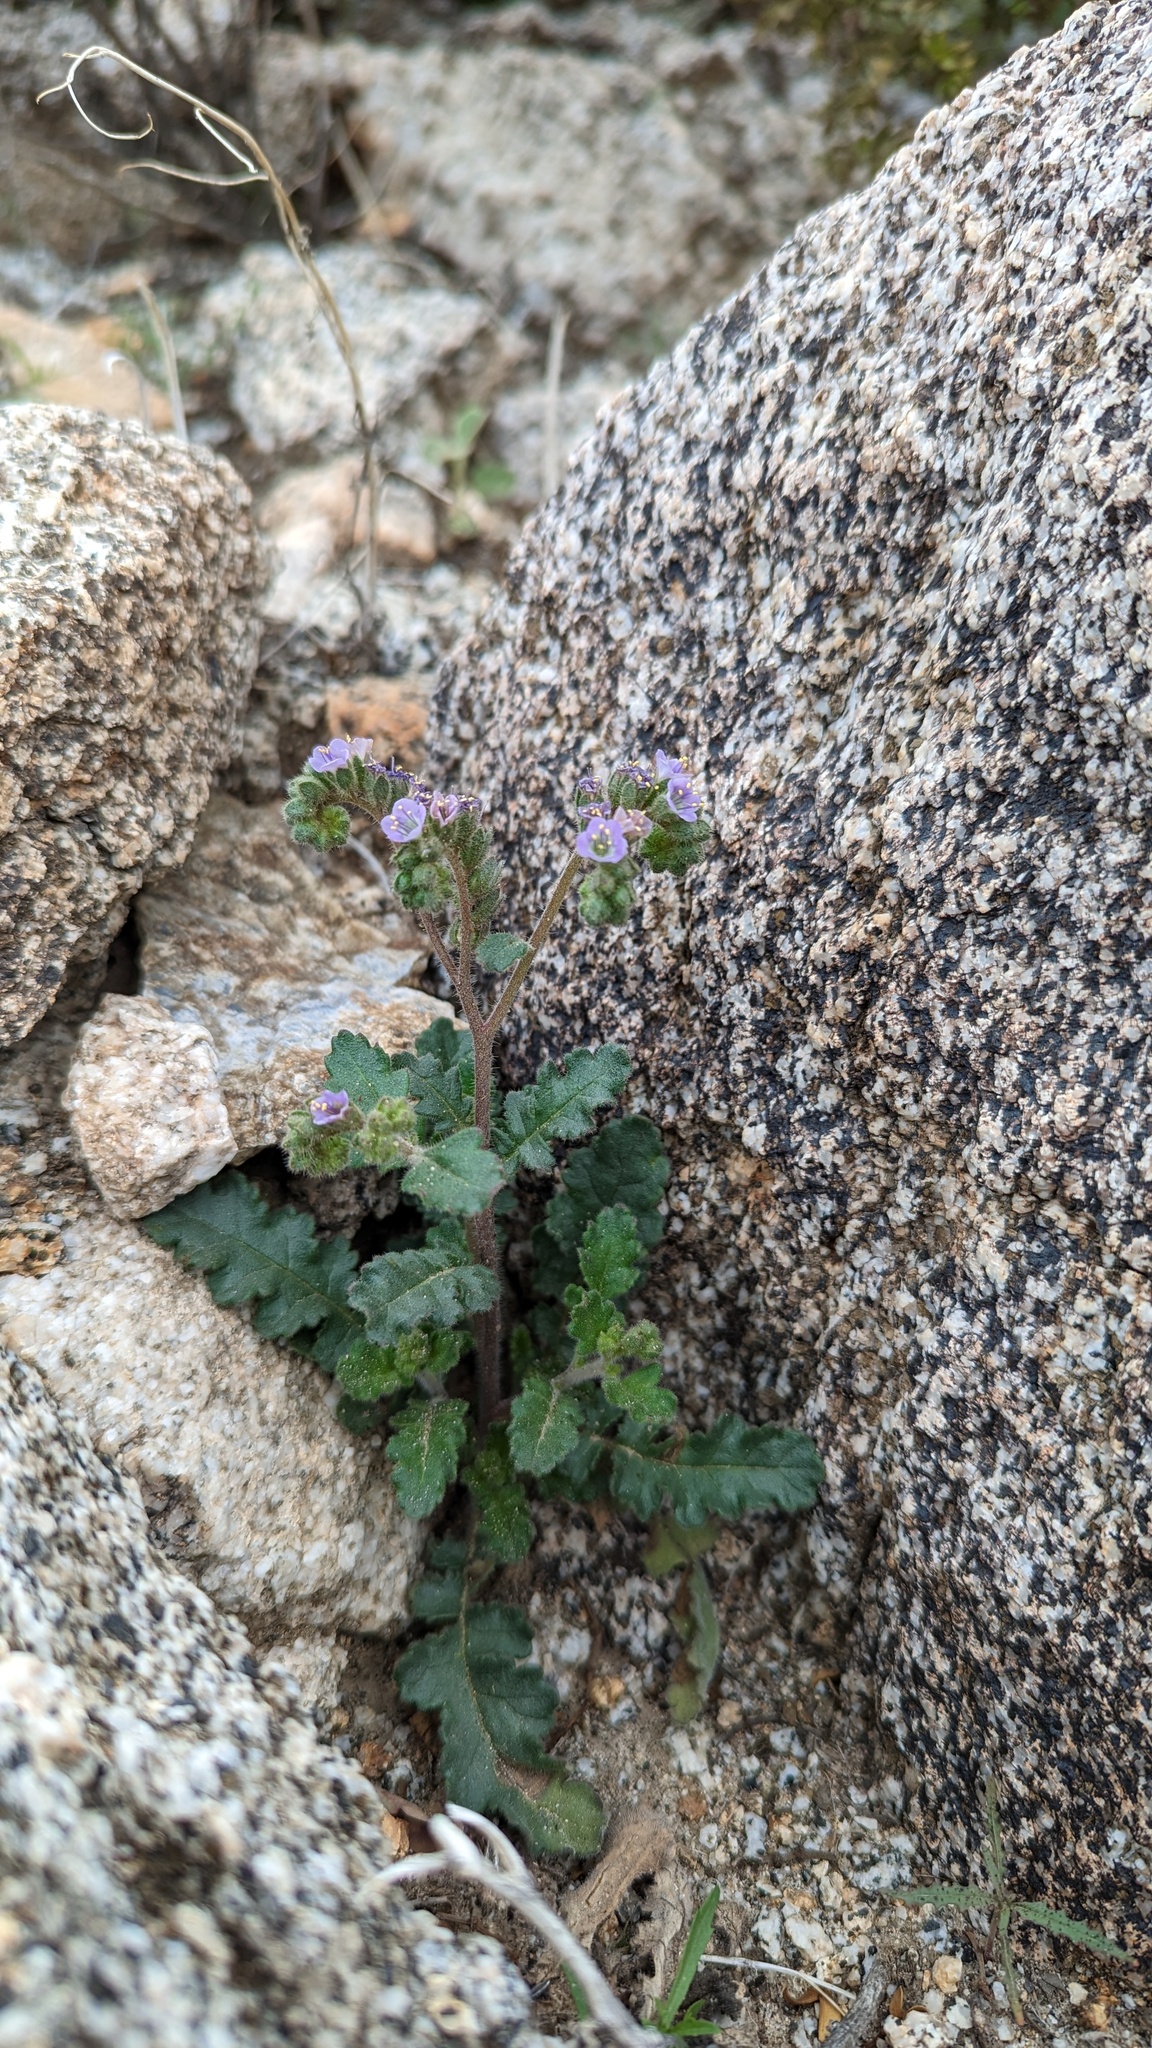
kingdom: Plantae
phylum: Tracheophyta
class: Magnoliopsida
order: Boraginales
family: Hydrophyllaceae
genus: Phacelia
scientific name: Phacelia crenulata
